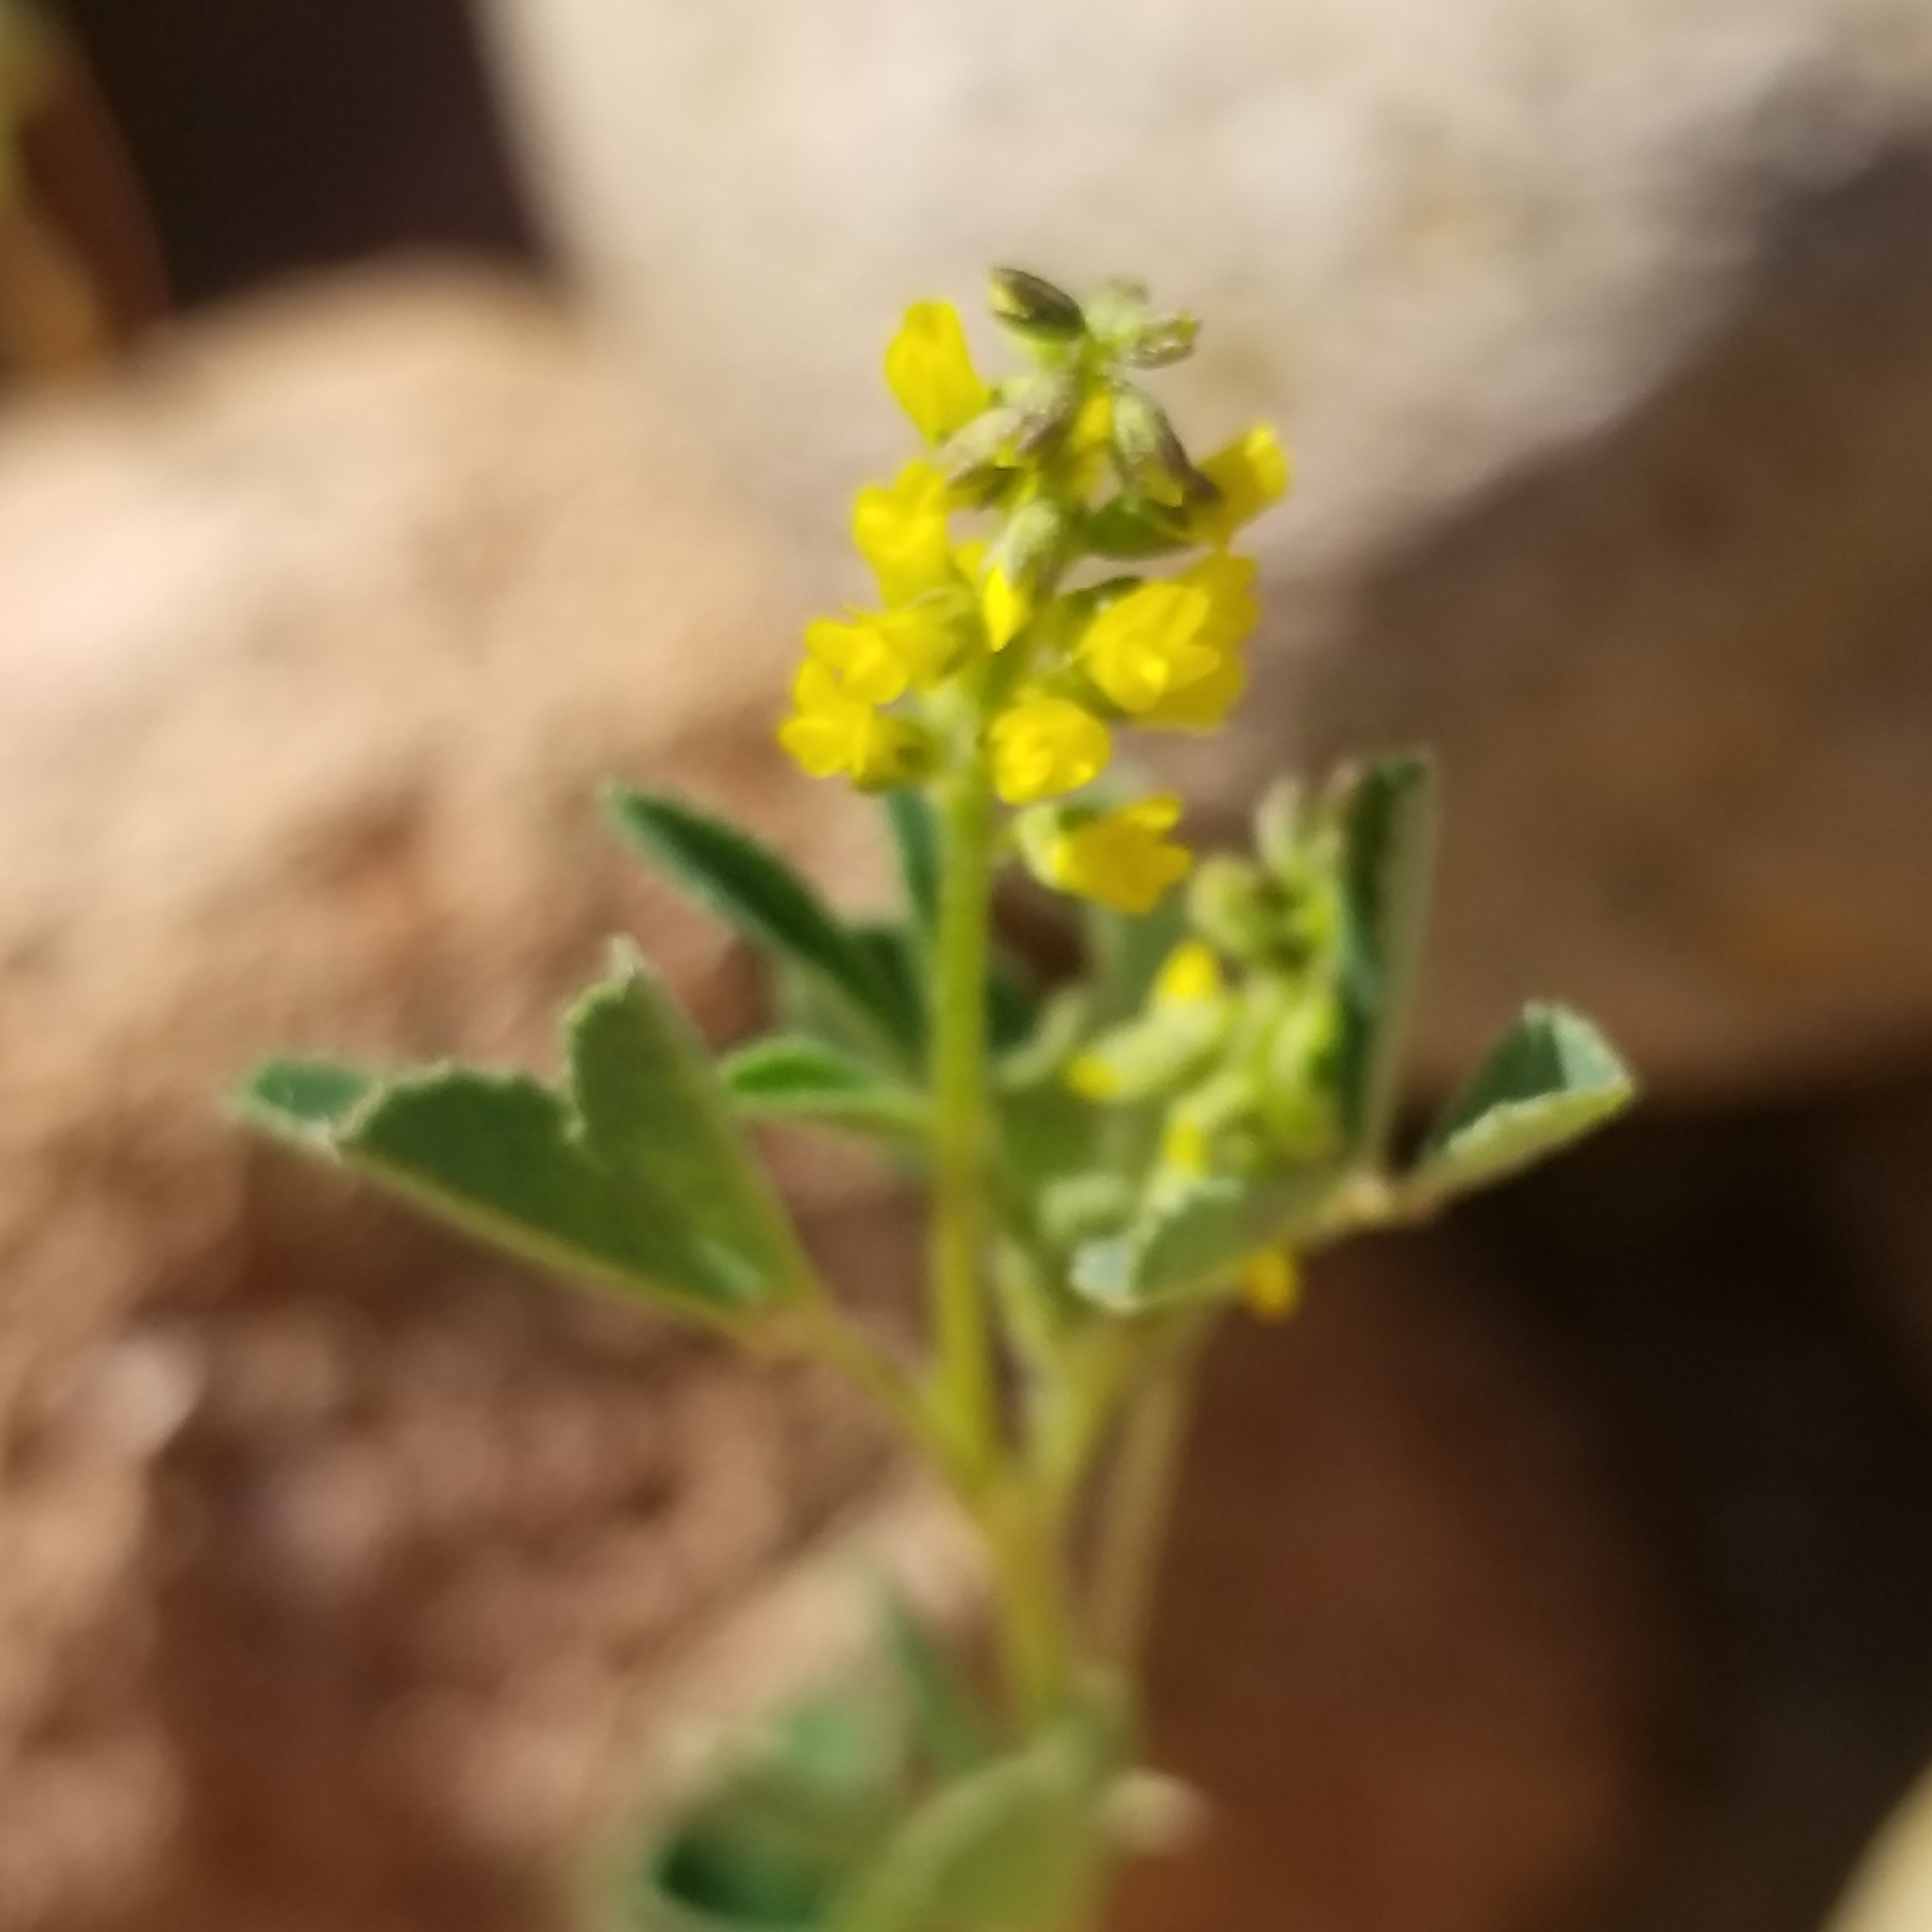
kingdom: Plantae
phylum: Tracheophyta
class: Magnoliopsida
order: Fabales
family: Fabaceae
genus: Melilotus
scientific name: Melilotus indicus
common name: Small melilot
